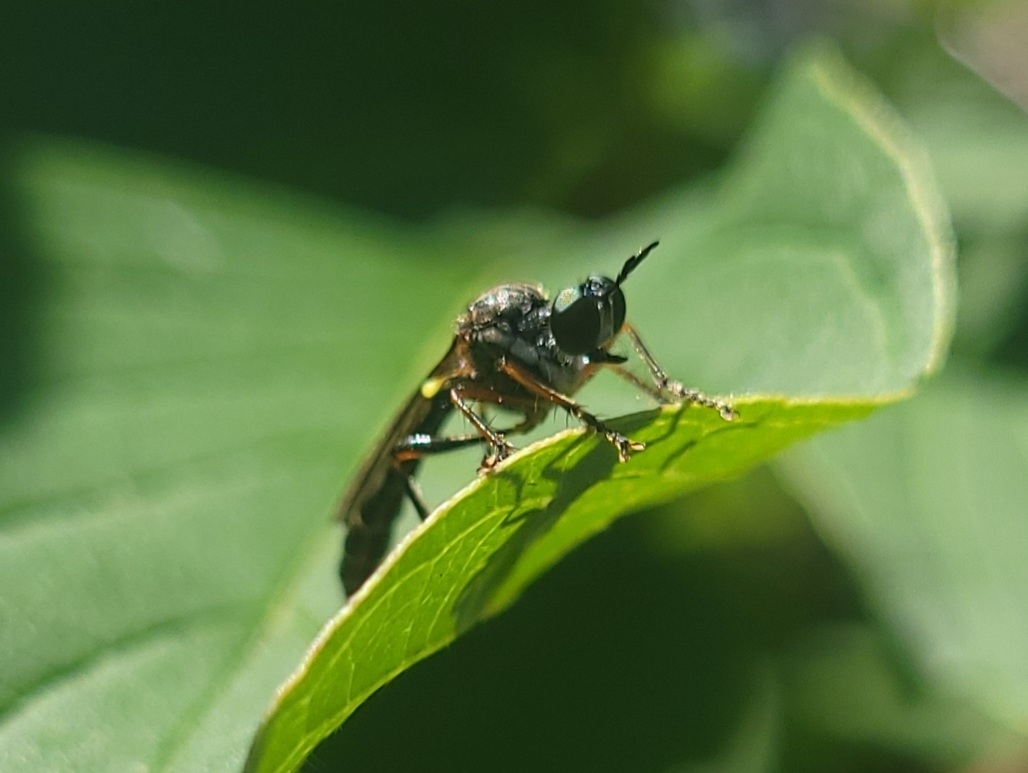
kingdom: Animalia
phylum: Arthropoda
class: Insecta
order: Diptera
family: Asilidae
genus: Dioctria
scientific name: Dioctria hyalipennis
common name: Stripe-legged robberfly
